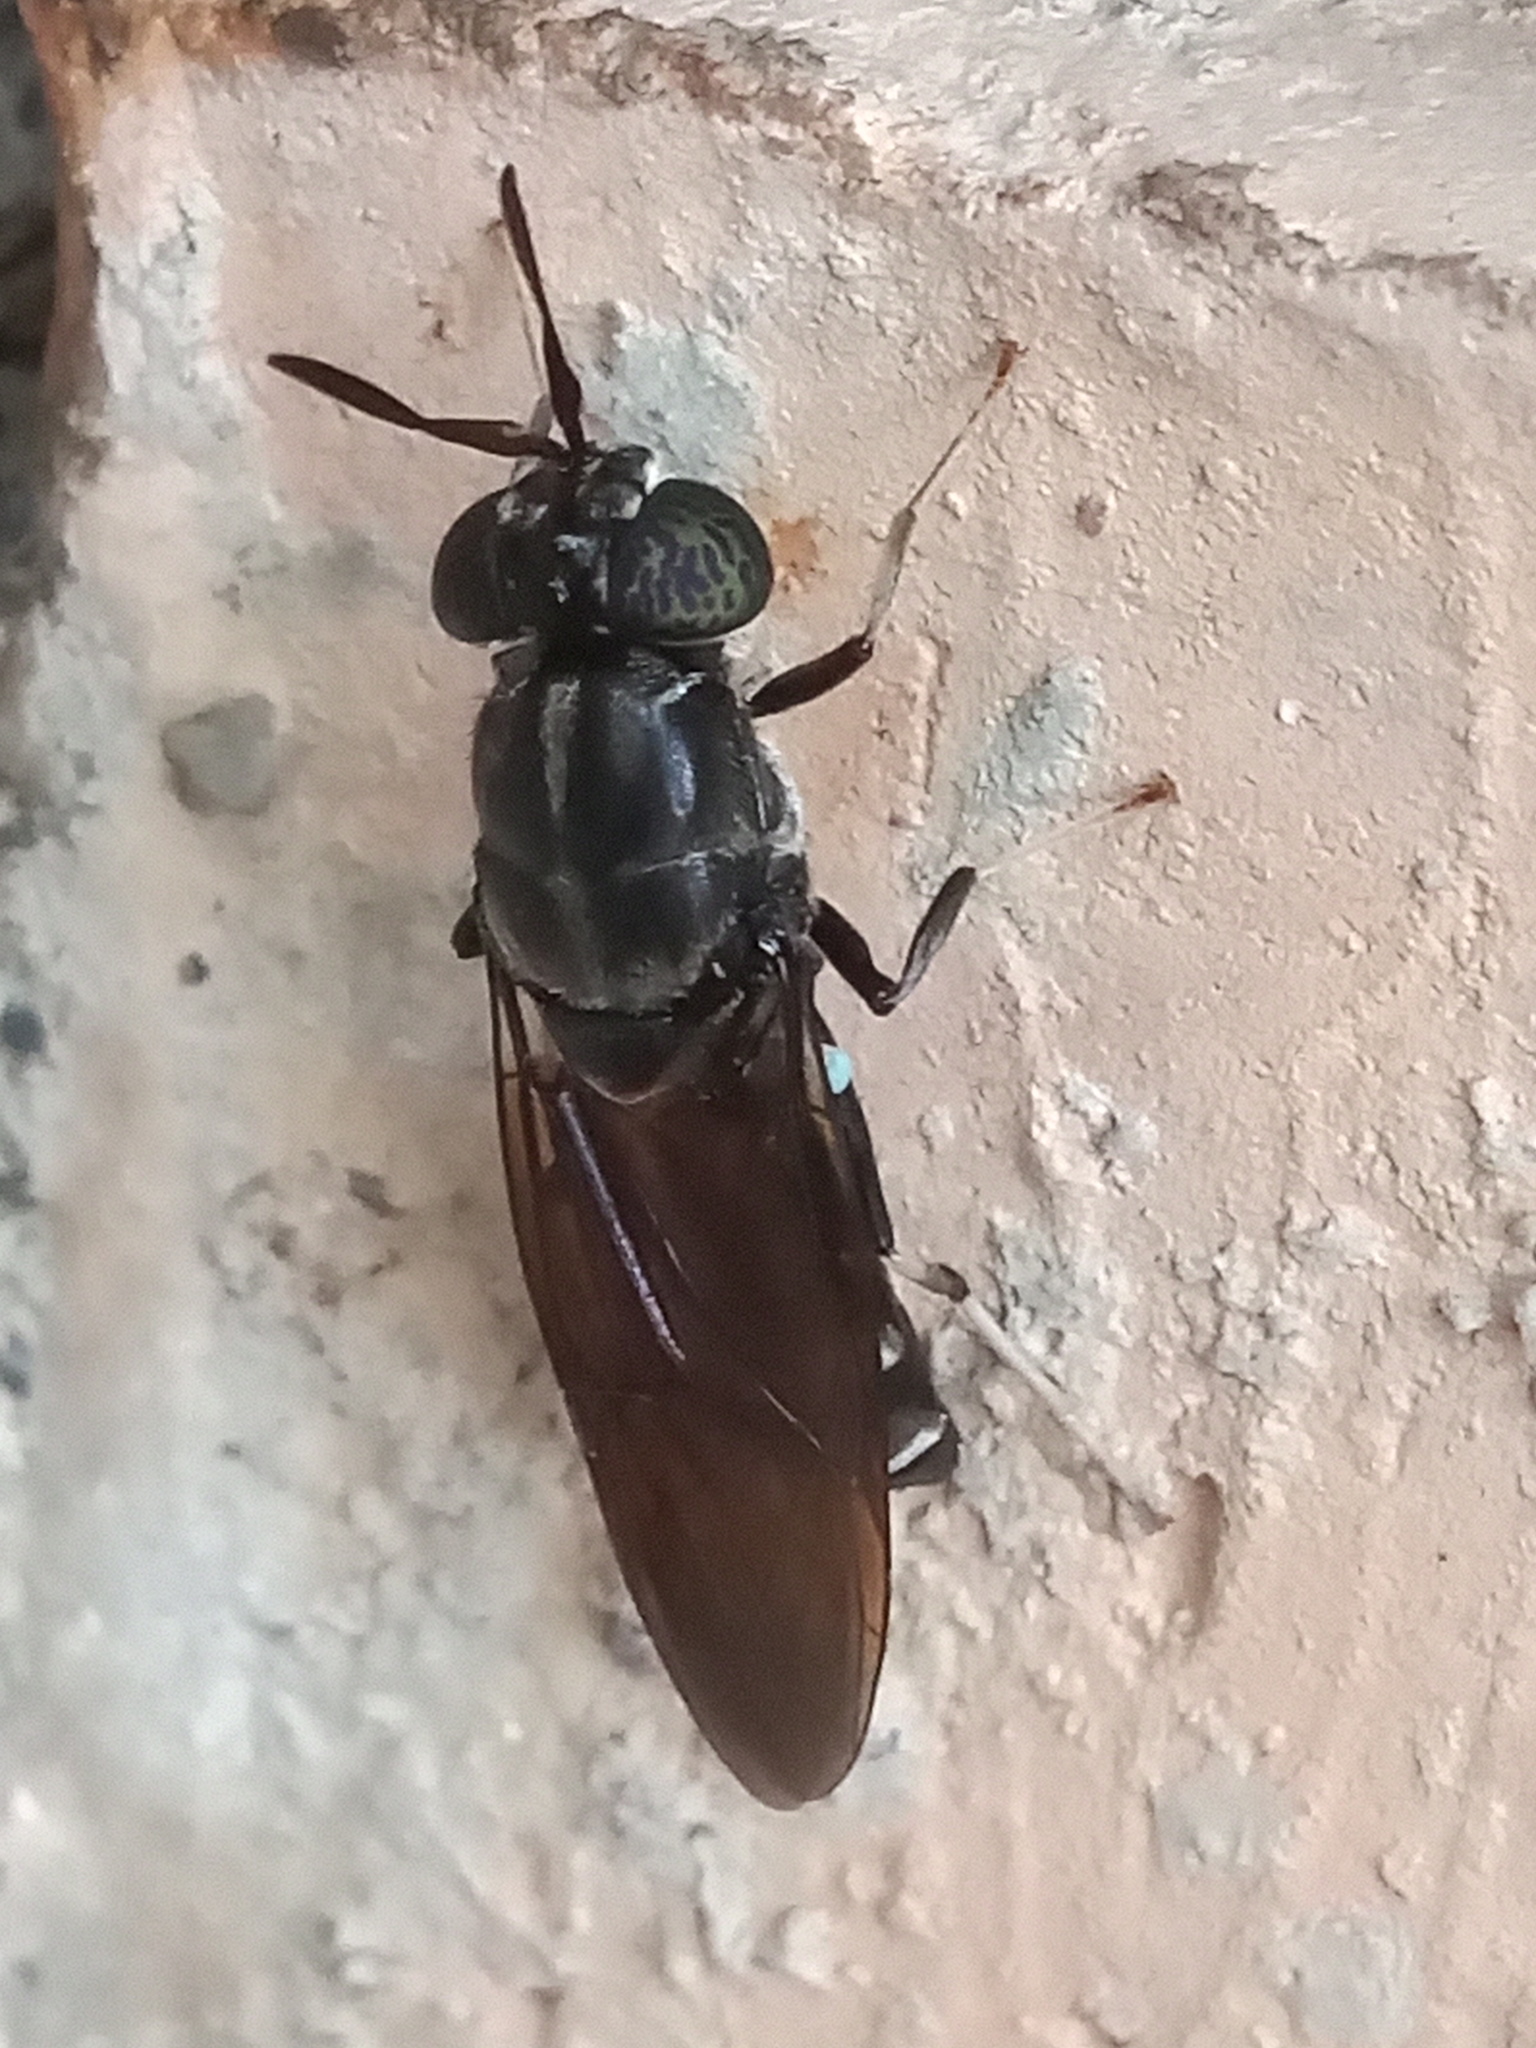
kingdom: Animalia
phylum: Arthropoda
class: Insecta
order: Diptera
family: Stratiomyidae
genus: Hermetia
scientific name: Hermetia illucens
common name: Black soldier fly
